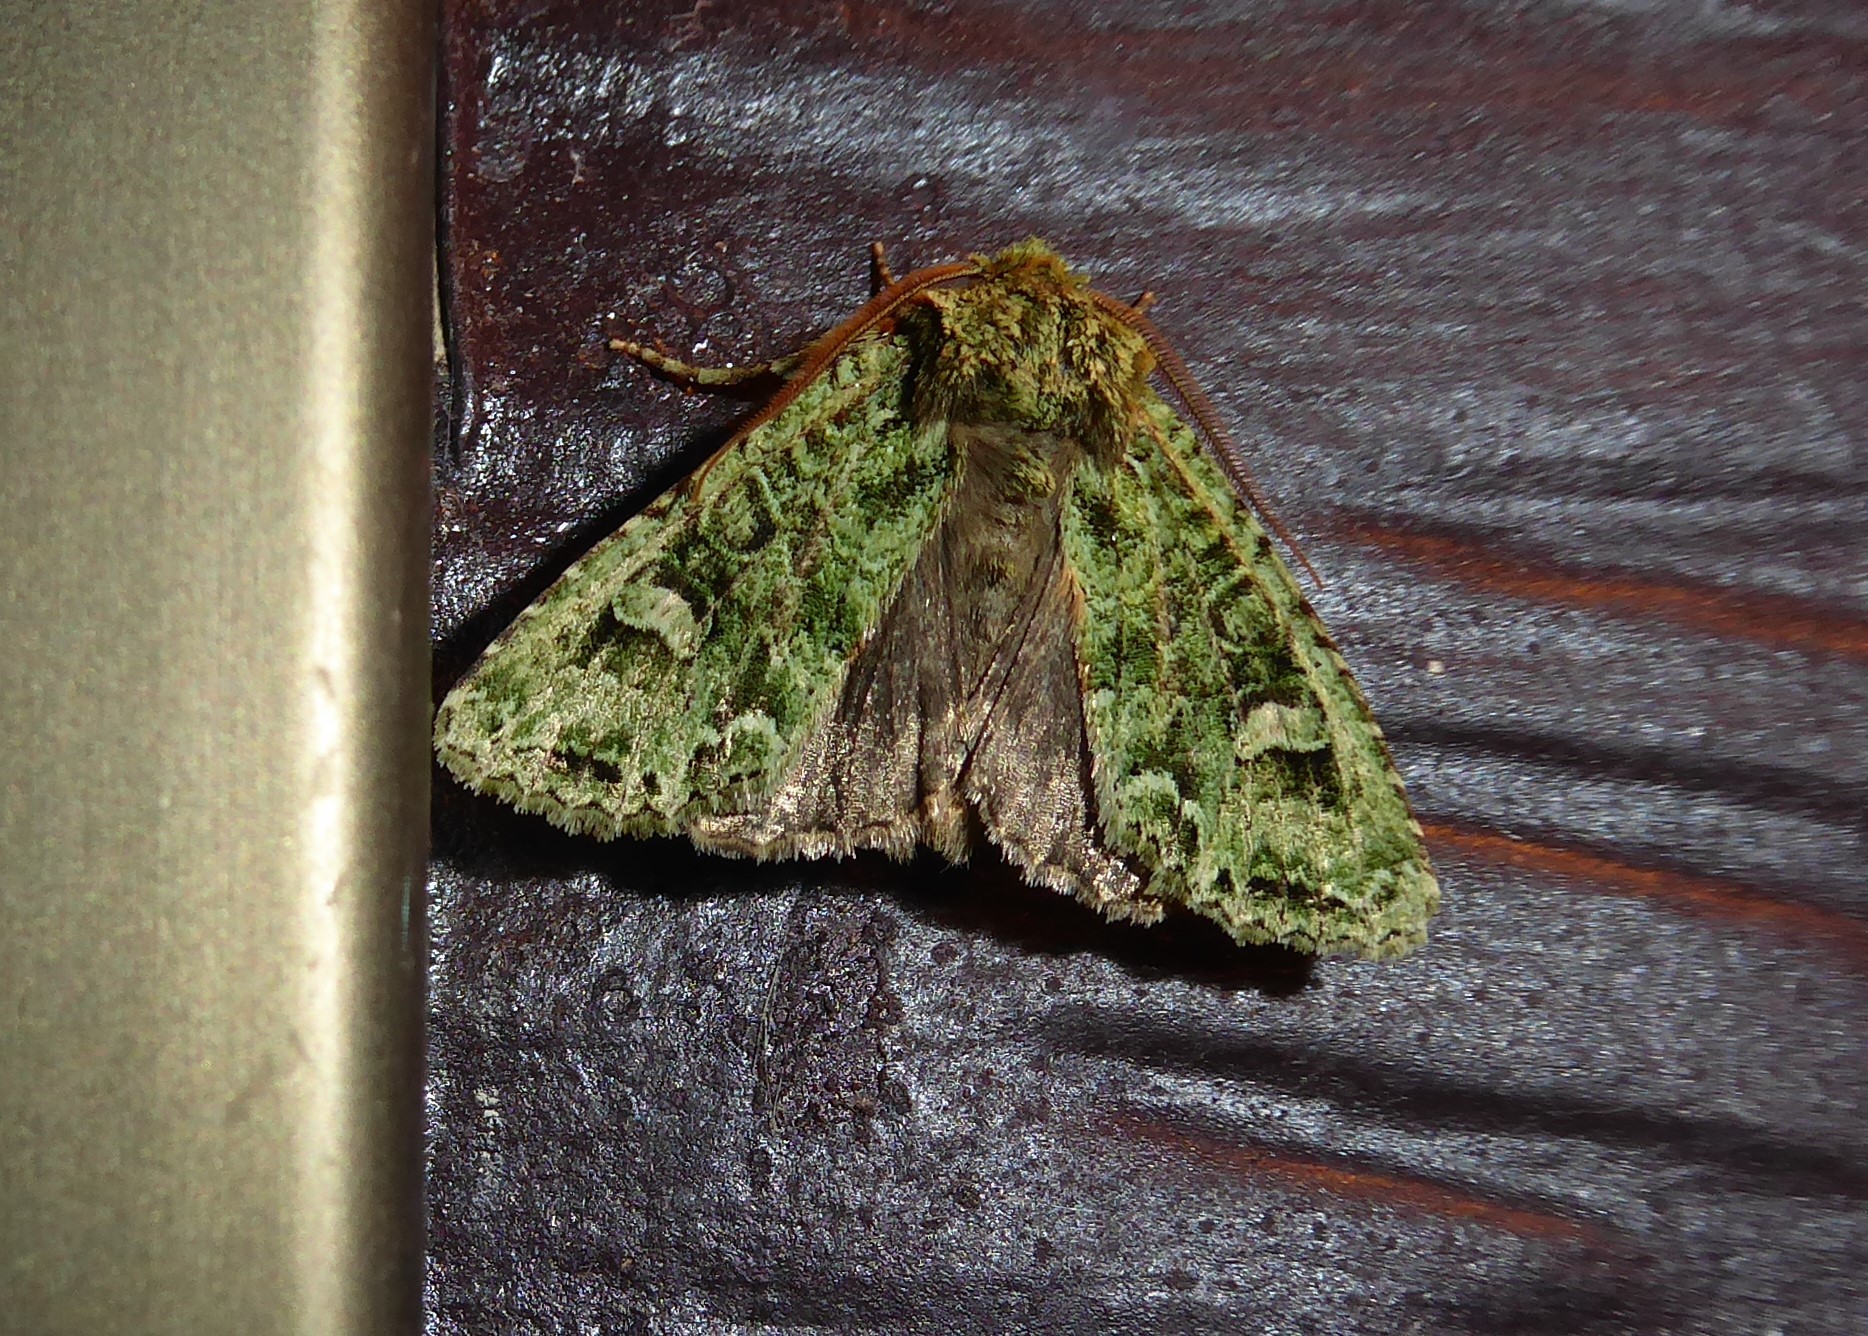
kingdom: Animalia
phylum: Arthropoda
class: Insecta
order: Lepidoptera
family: Noctuidae
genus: Ichneutica
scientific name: Ichneutica
